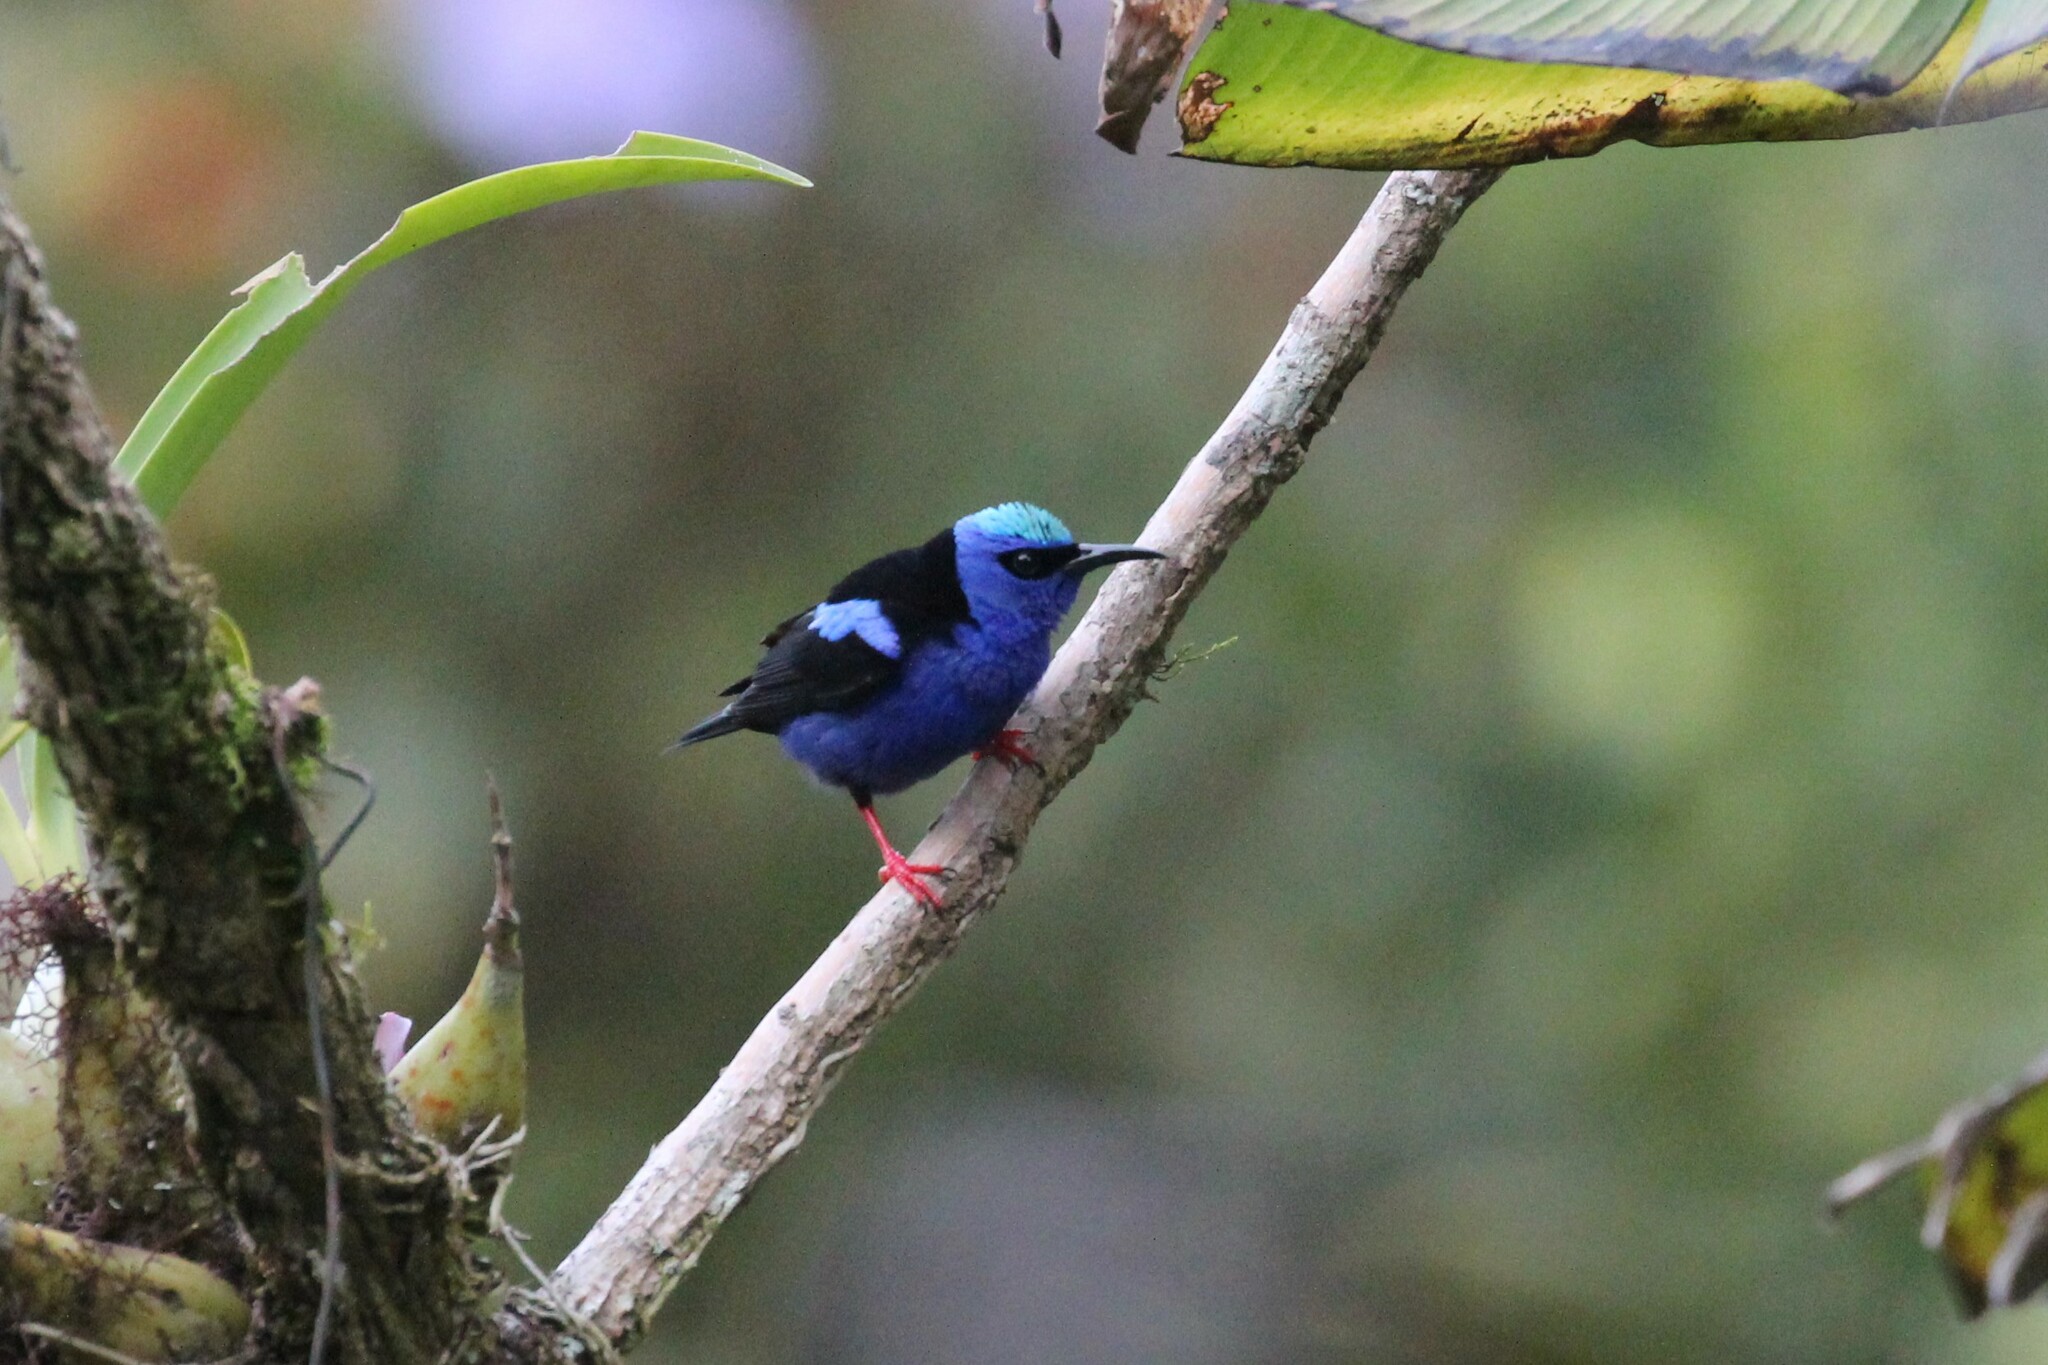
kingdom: Animalia
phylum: Chordata
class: Aves
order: Passeriformes
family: Thraupidae
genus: Cyanerpes
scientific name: Cyanerpes cyaneus
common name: Red-legged honeycreeper
